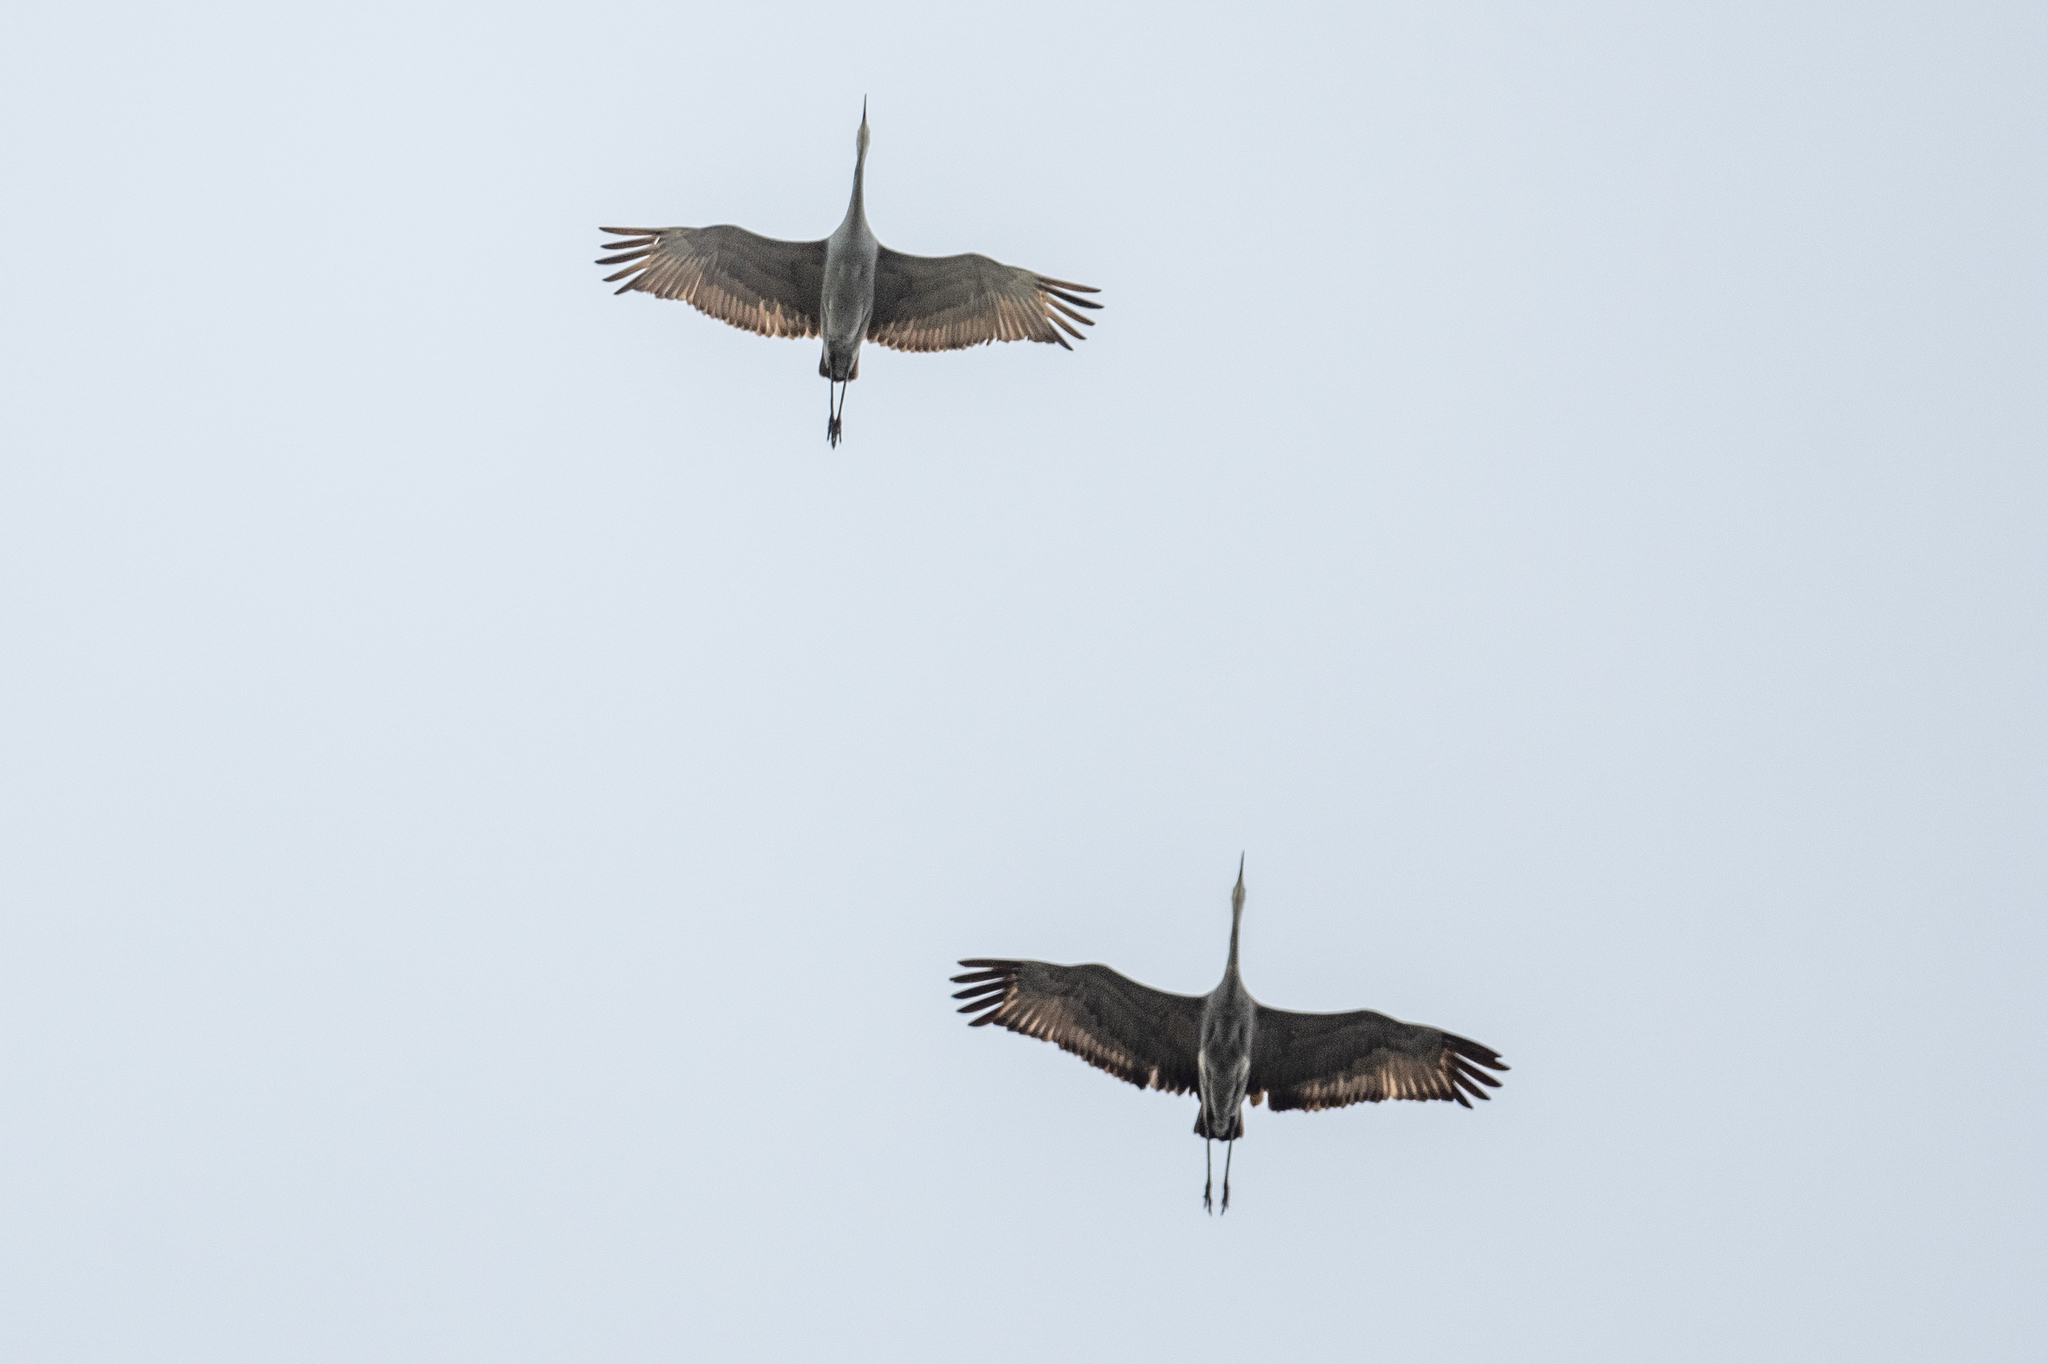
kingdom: Animalia
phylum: Chordata
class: Aves
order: Gruiformes
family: Gruidae
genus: Grus
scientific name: Grus canadensis
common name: Sandhill crane
